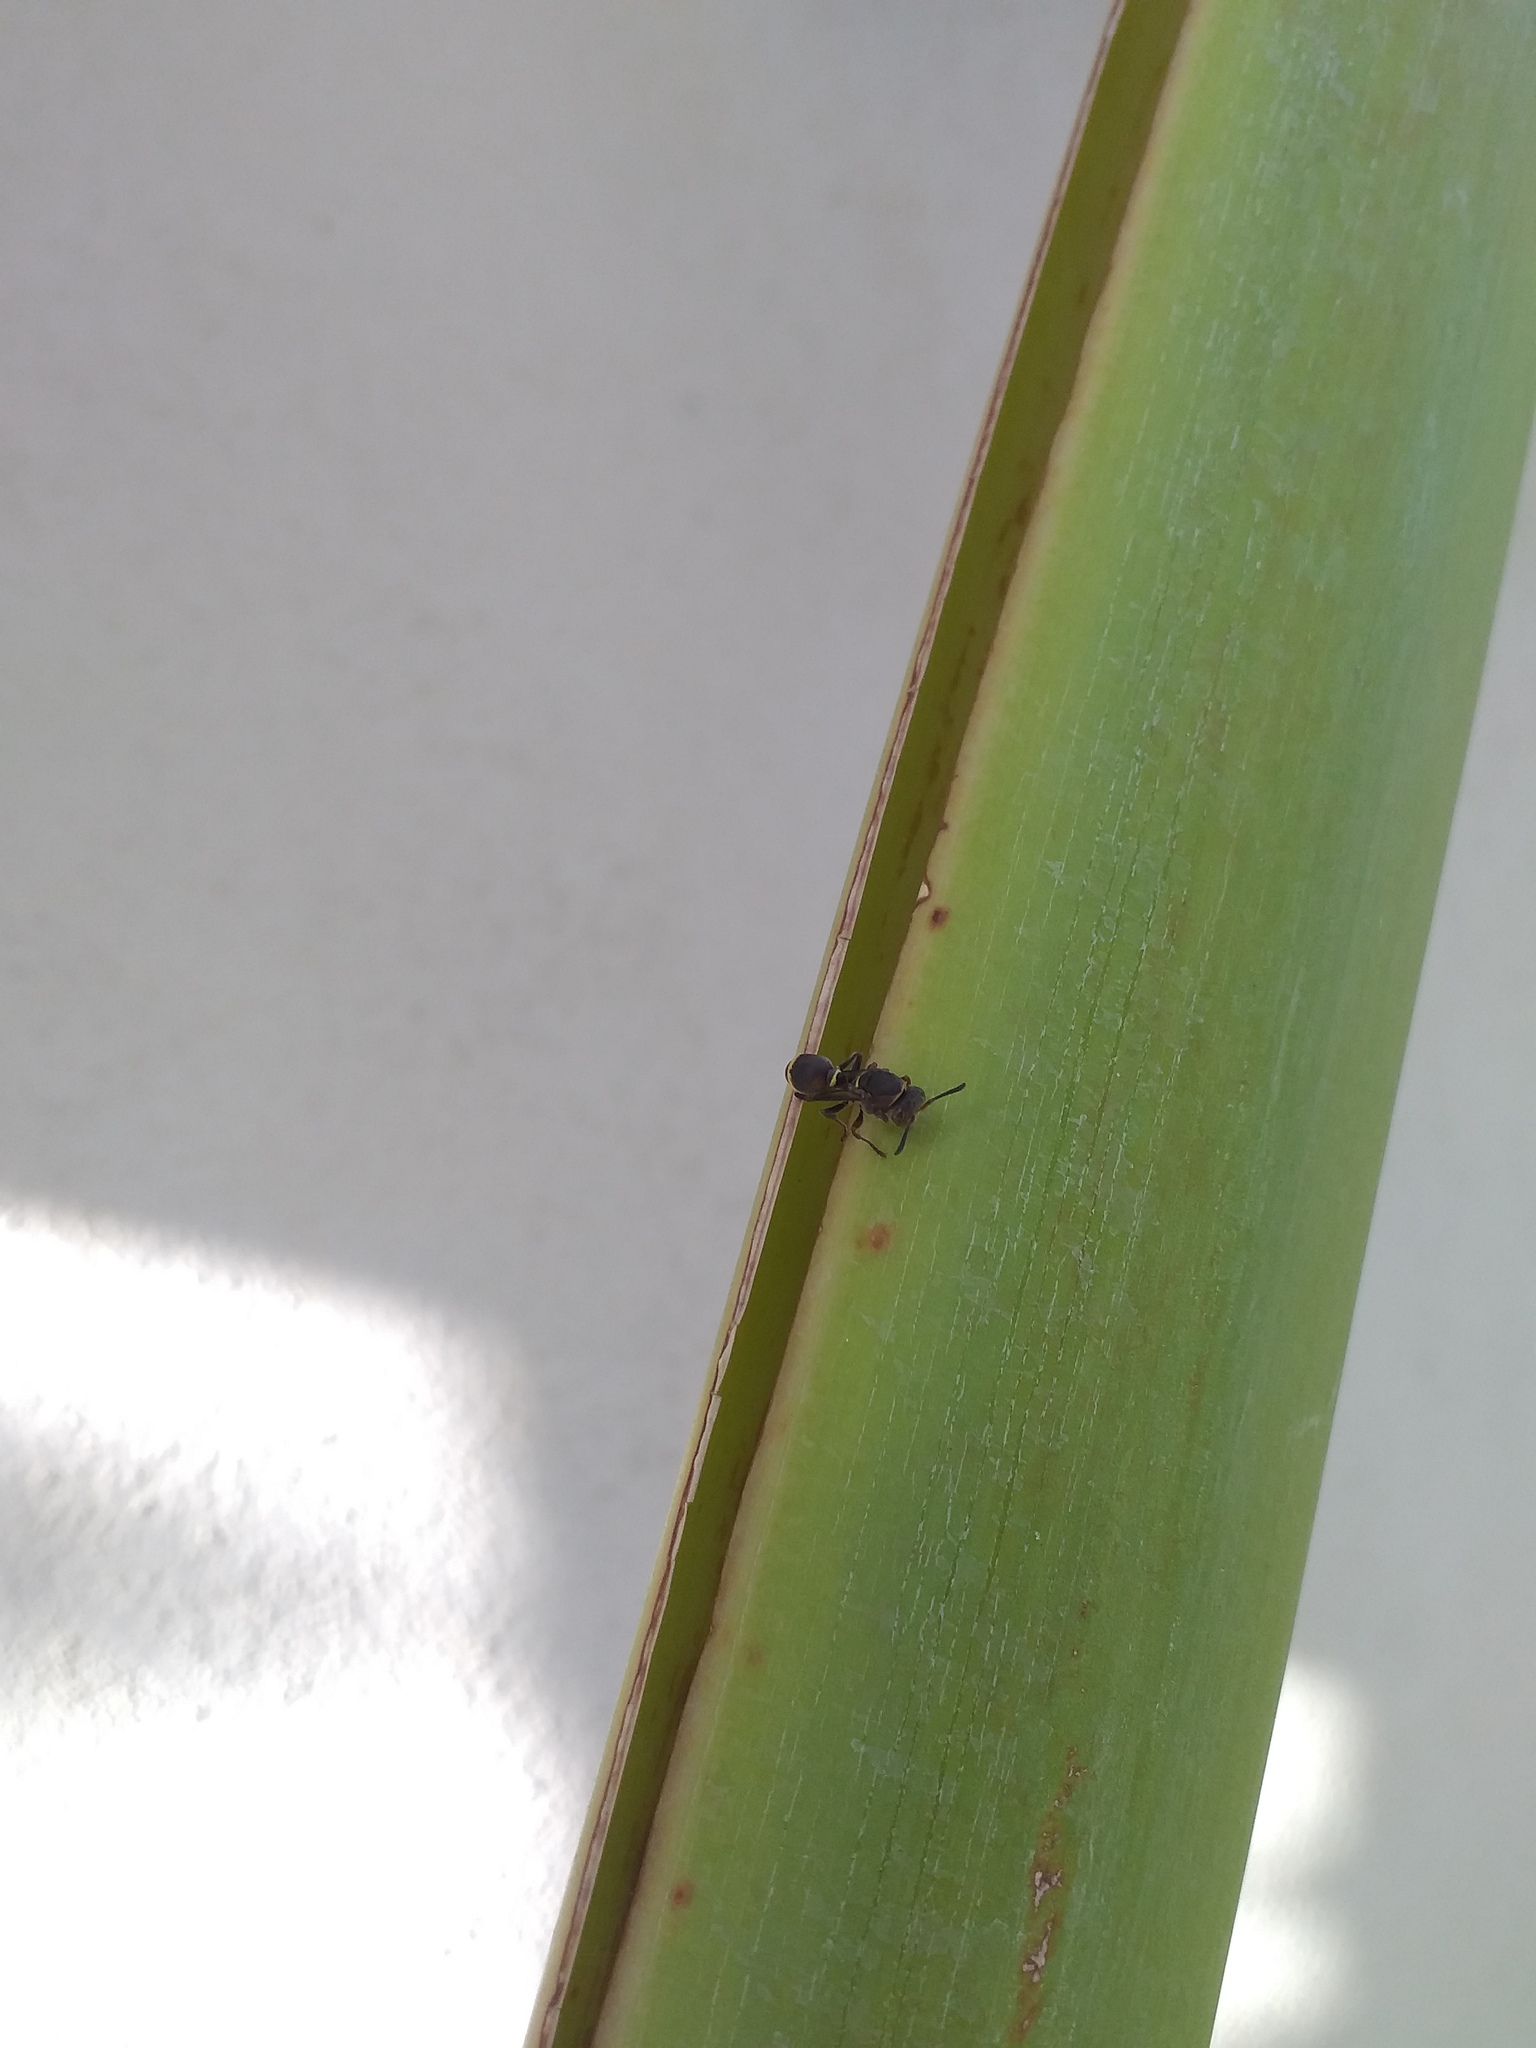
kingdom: Animalia
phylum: Arthropoda
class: Insecta
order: Hymenoptera
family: Vespidae
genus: Ropalidia
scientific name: Ropalidia rufoplagiata
